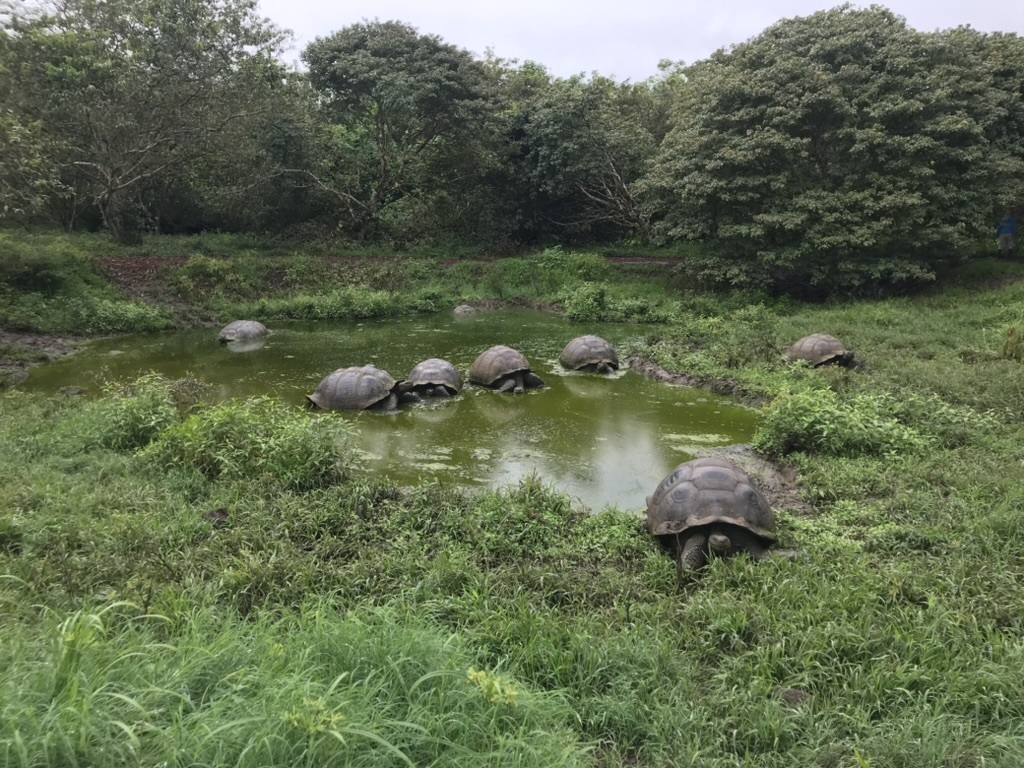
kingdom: Animalia
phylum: Chordata
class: Testudines
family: Testudinidae
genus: Chelonoidis
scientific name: Chelonoidis niger
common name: Charles island giant tortoise
